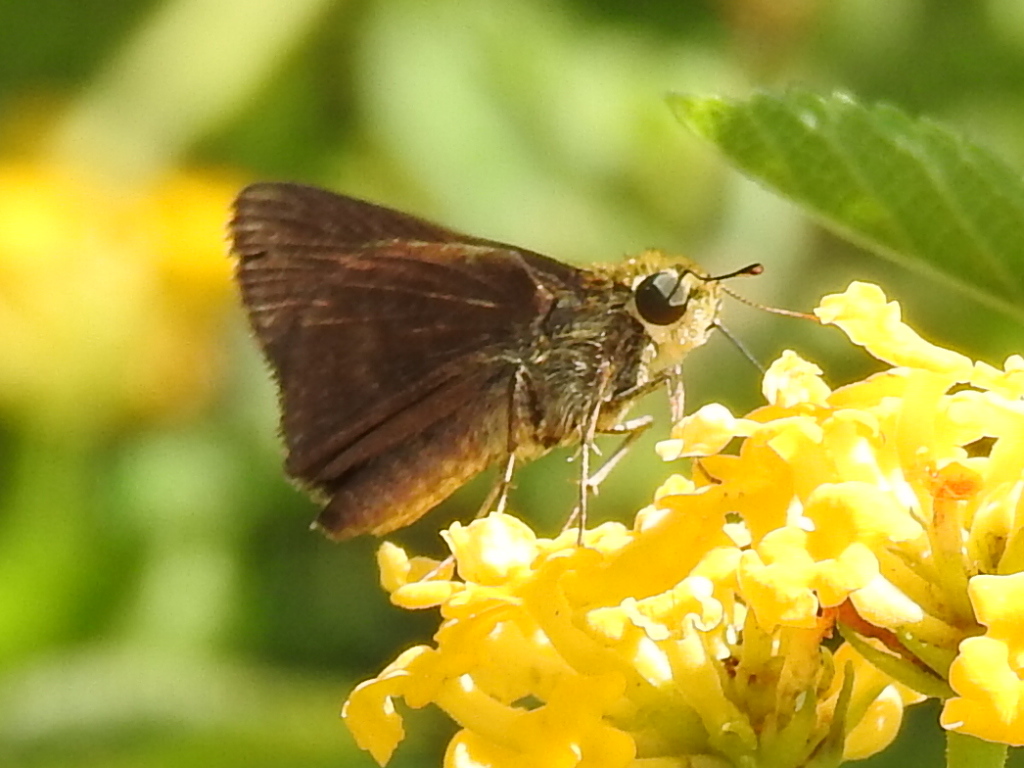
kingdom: Animalia
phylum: Arthropoda
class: Insecta
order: Lepidoptera
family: Hesperiidae
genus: Euphyes
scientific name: Euphyes vestris
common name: Dun skipper
